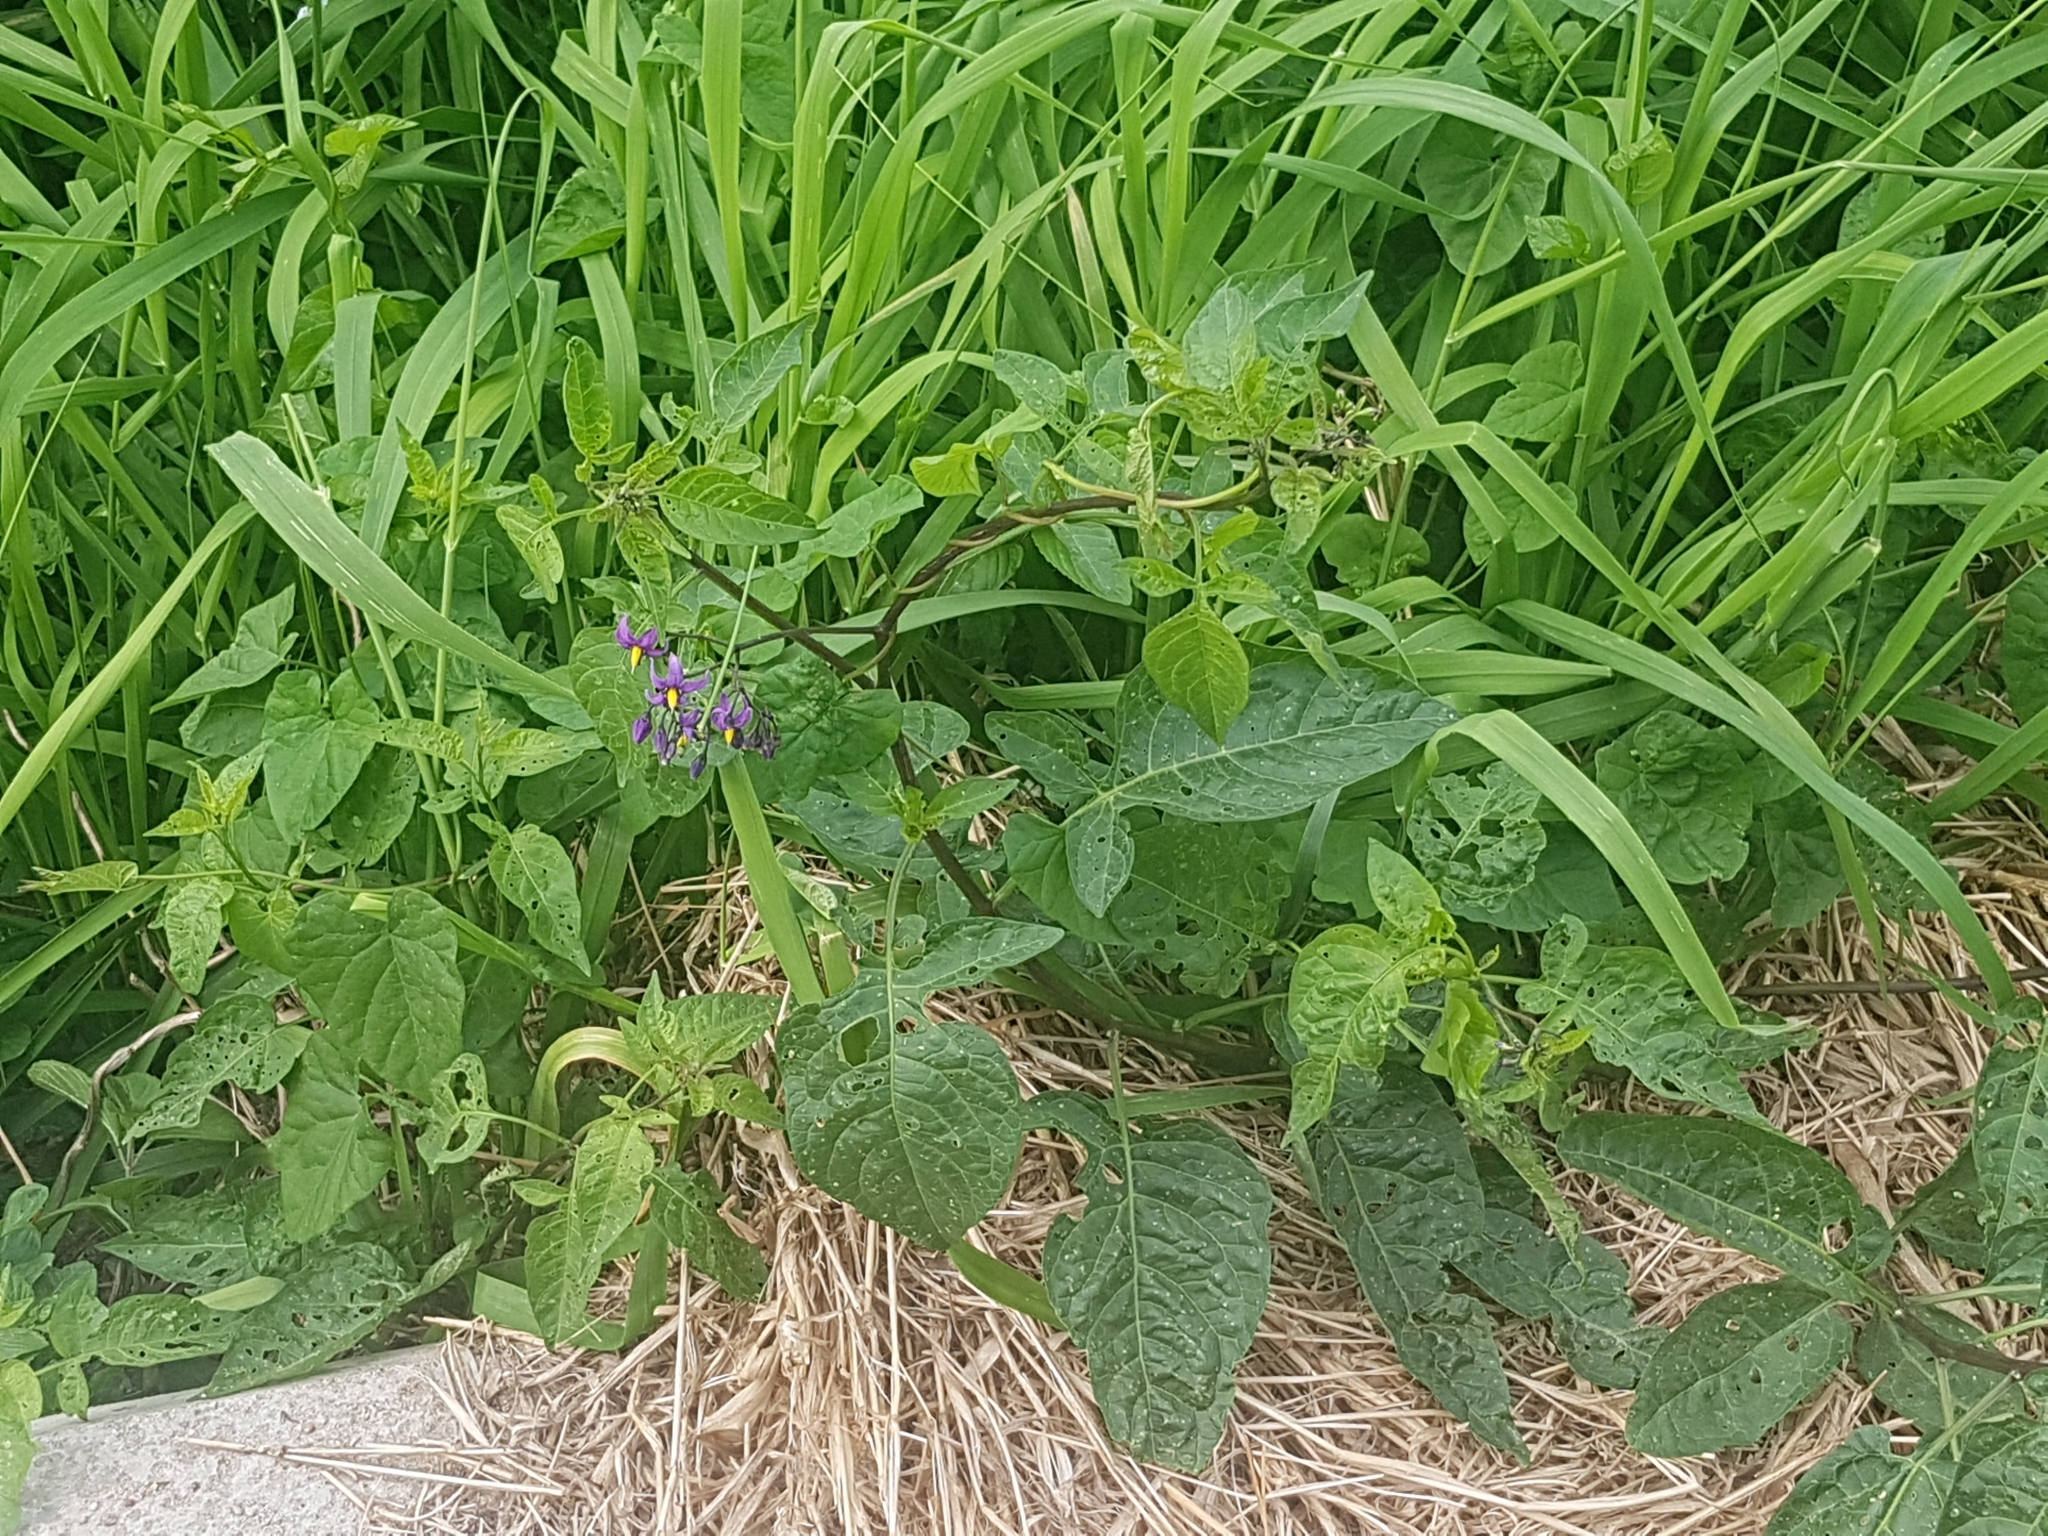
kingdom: Plantae
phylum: Tracheophyta
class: Magnoliopsida
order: Solanales
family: Solanaceae
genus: Solanum
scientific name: Solanum dulcamara
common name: Climbing nightshade
